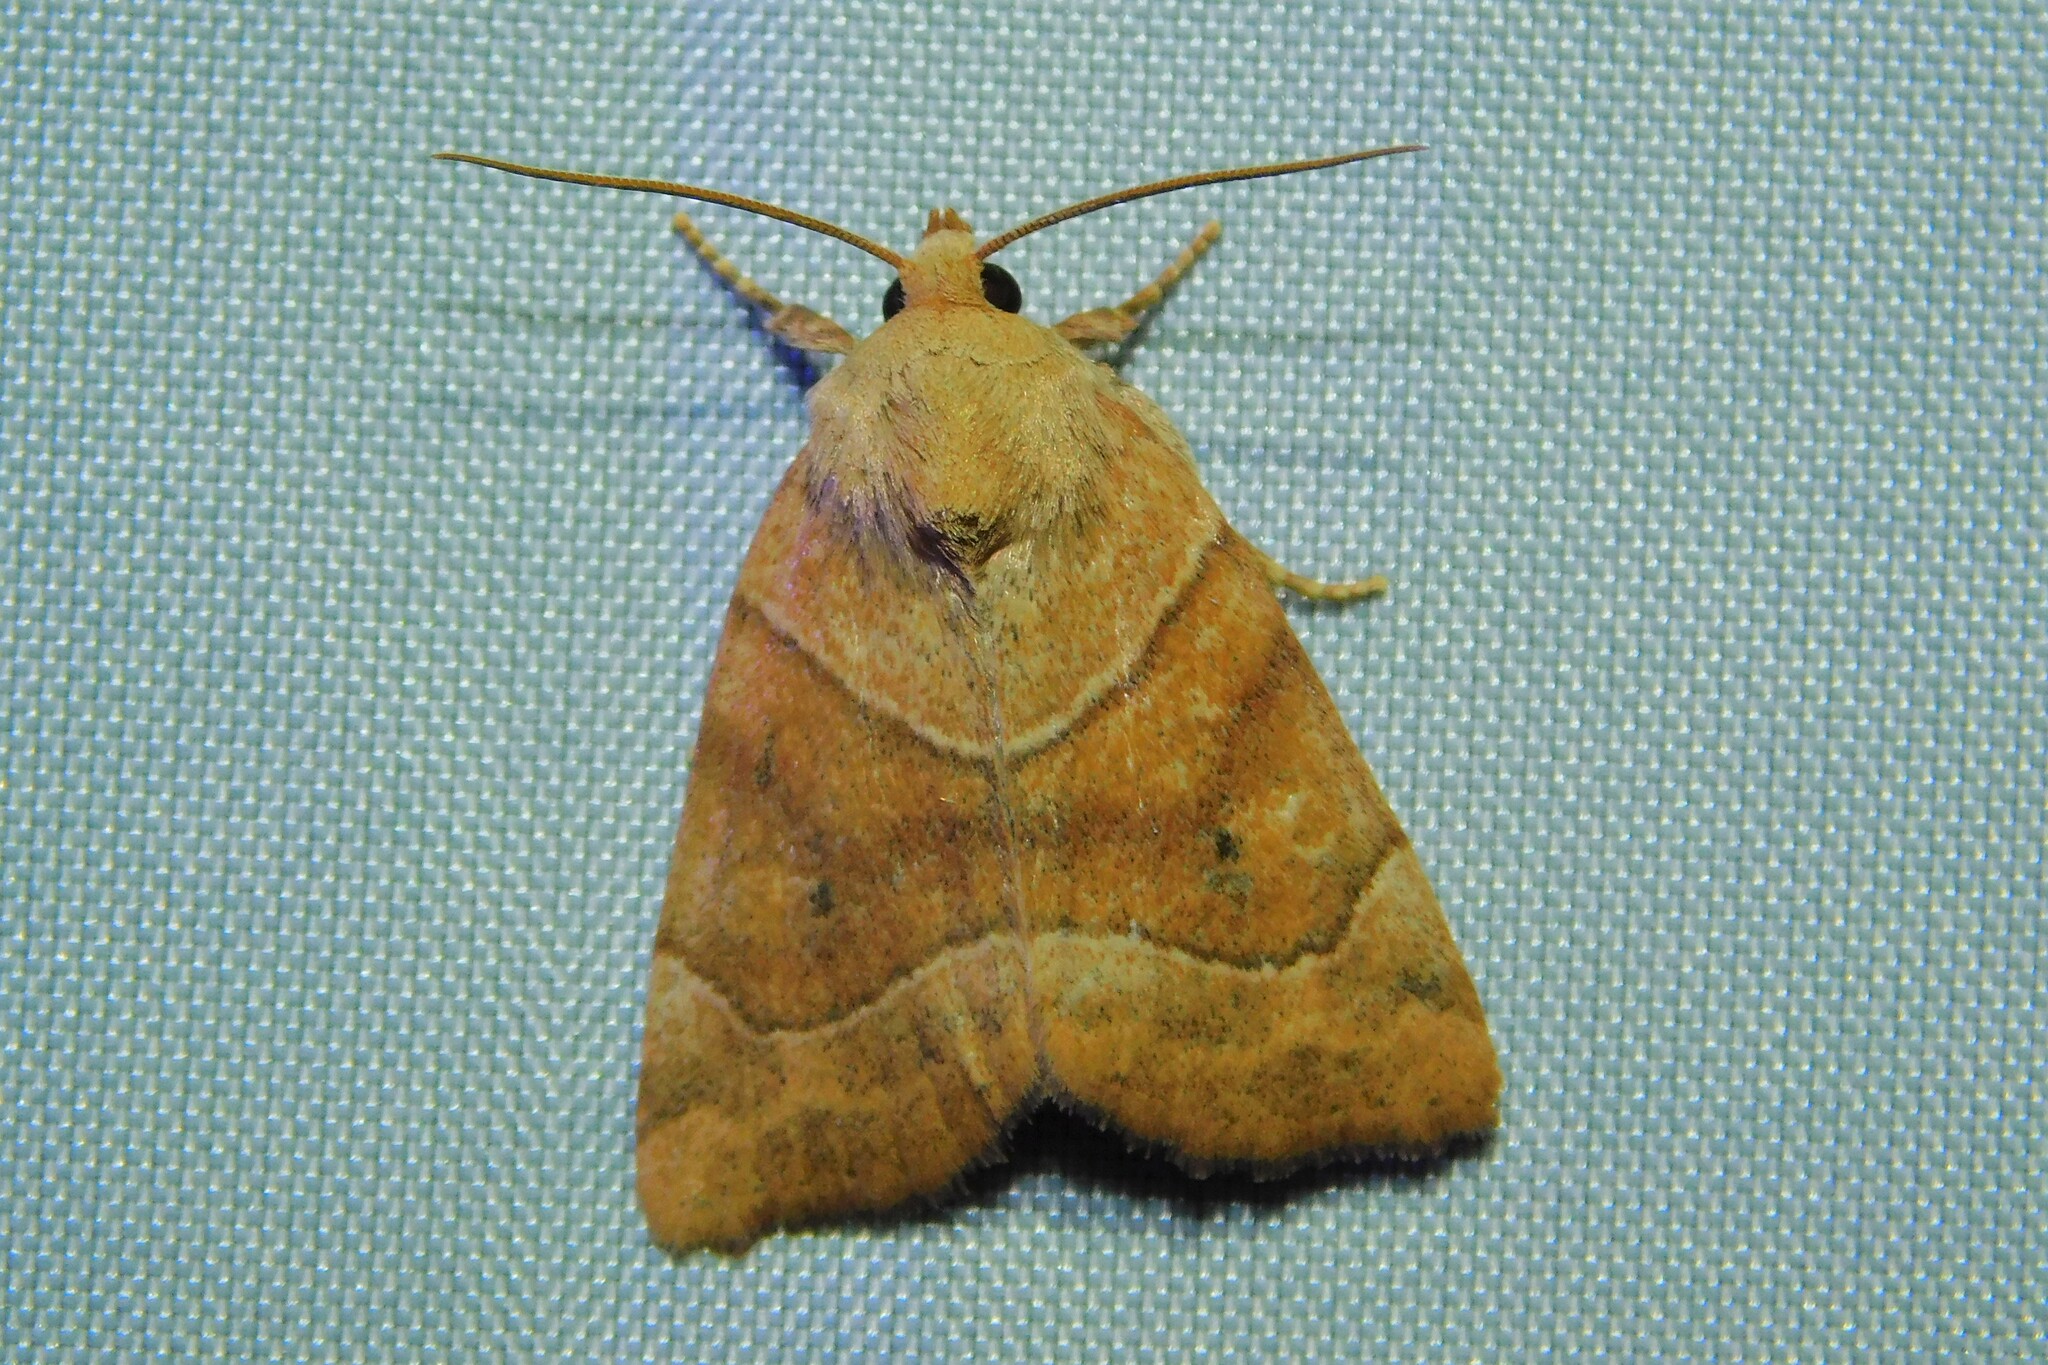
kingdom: Animalia
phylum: Arthropoda
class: Insecta
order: Lepidoptera
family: Noctuidae
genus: Cosmia
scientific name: Cosmia trapezina
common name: Dun-bar
